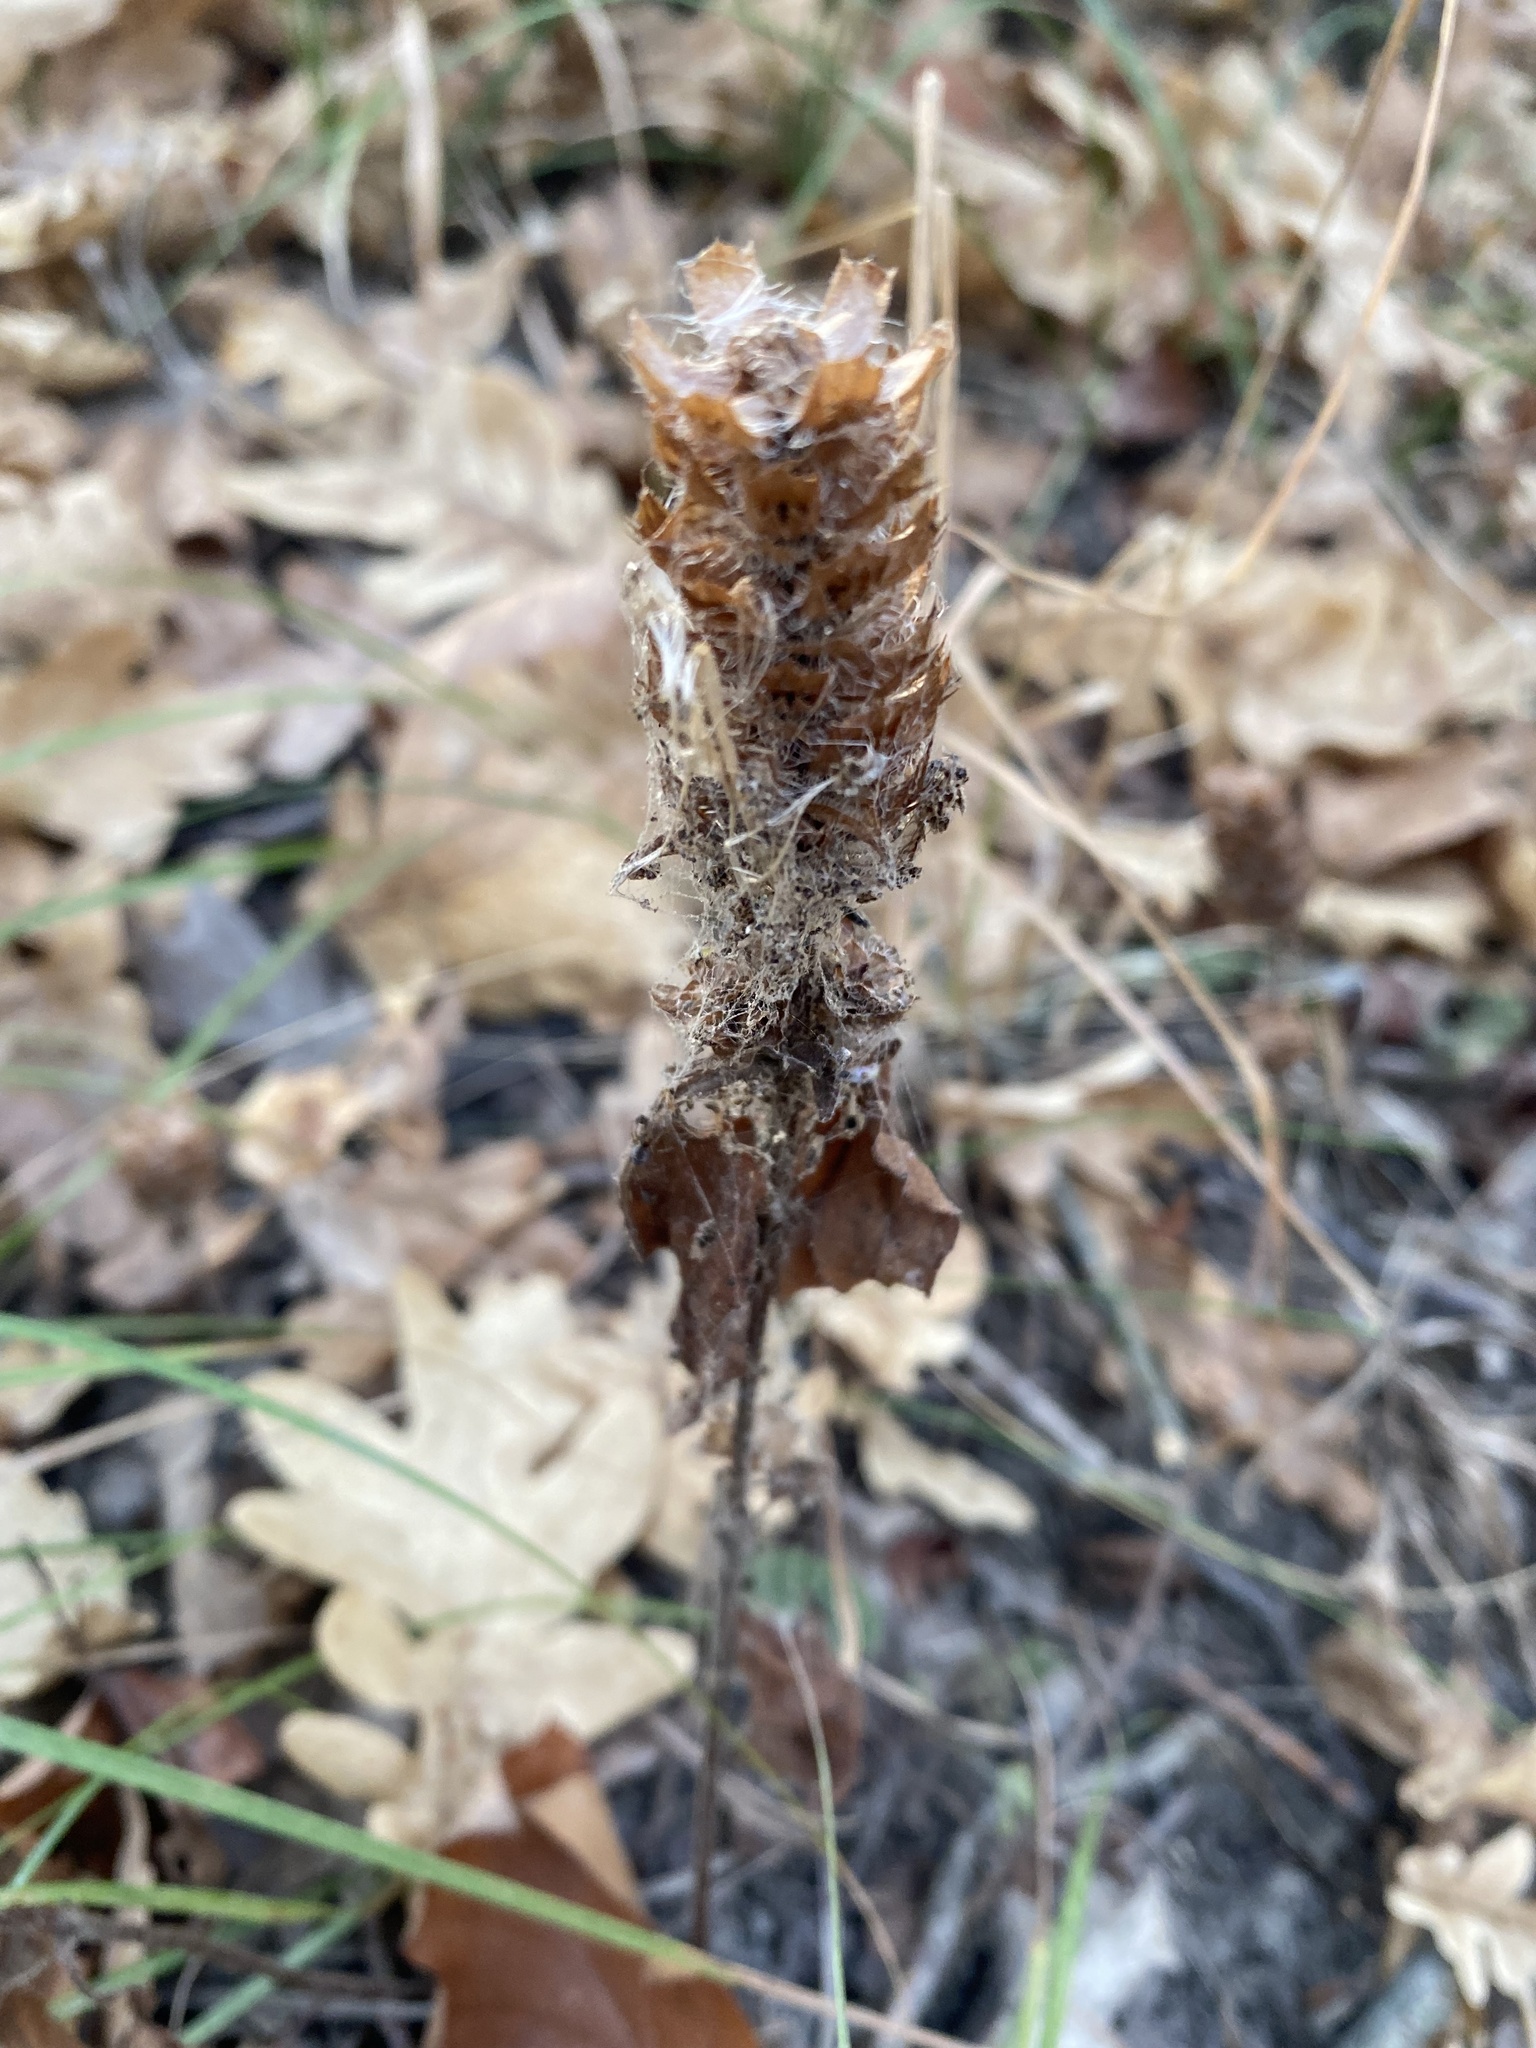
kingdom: Plantae
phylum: Tracheophyta
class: Magnoliopsida
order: Lamiales
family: Lamiaceae
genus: Prunella
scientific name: Prunella vulgaris
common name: Heal-all
